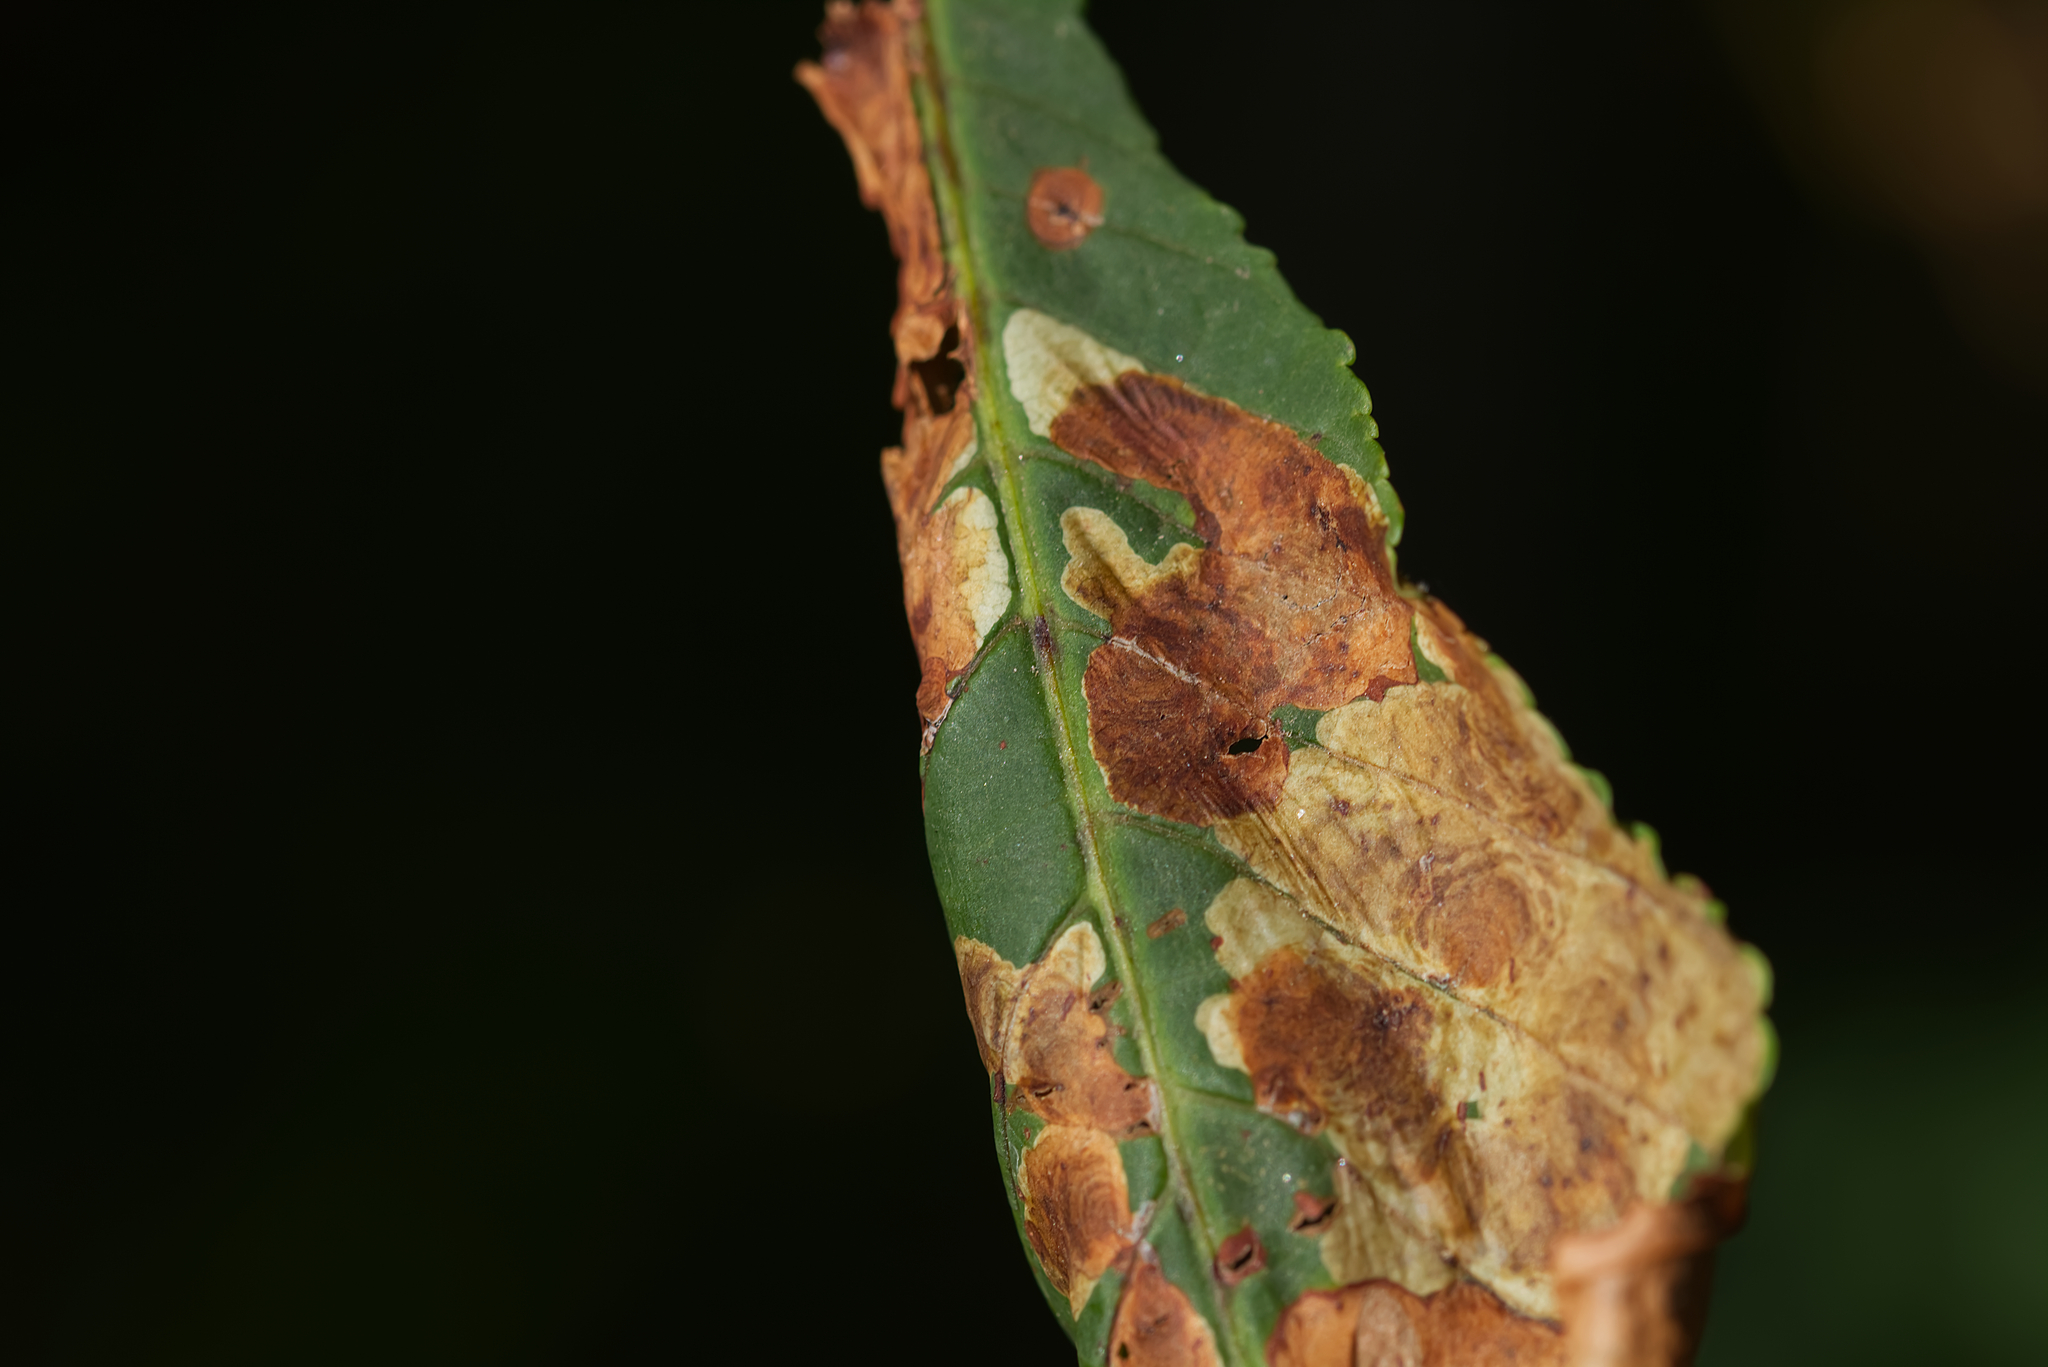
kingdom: Animalia
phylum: Arthropoda
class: Insecta
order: Lepidoptera
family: Gracillariidae
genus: Cameraria
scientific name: Cameraria ohridella
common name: Horse-chestnut leaf-miner
